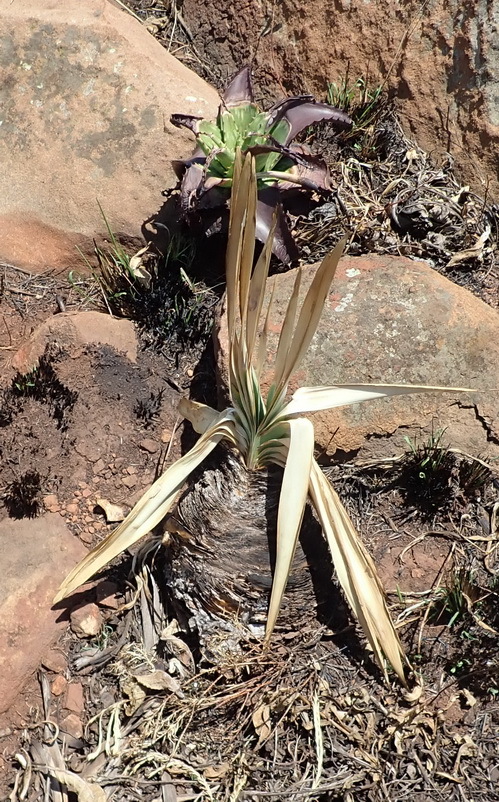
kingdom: Plantae
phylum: Tracheophyta
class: Liliopsida
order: Asparagales
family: Amaryllidaceae
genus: Boophone
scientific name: Boophone disticha
